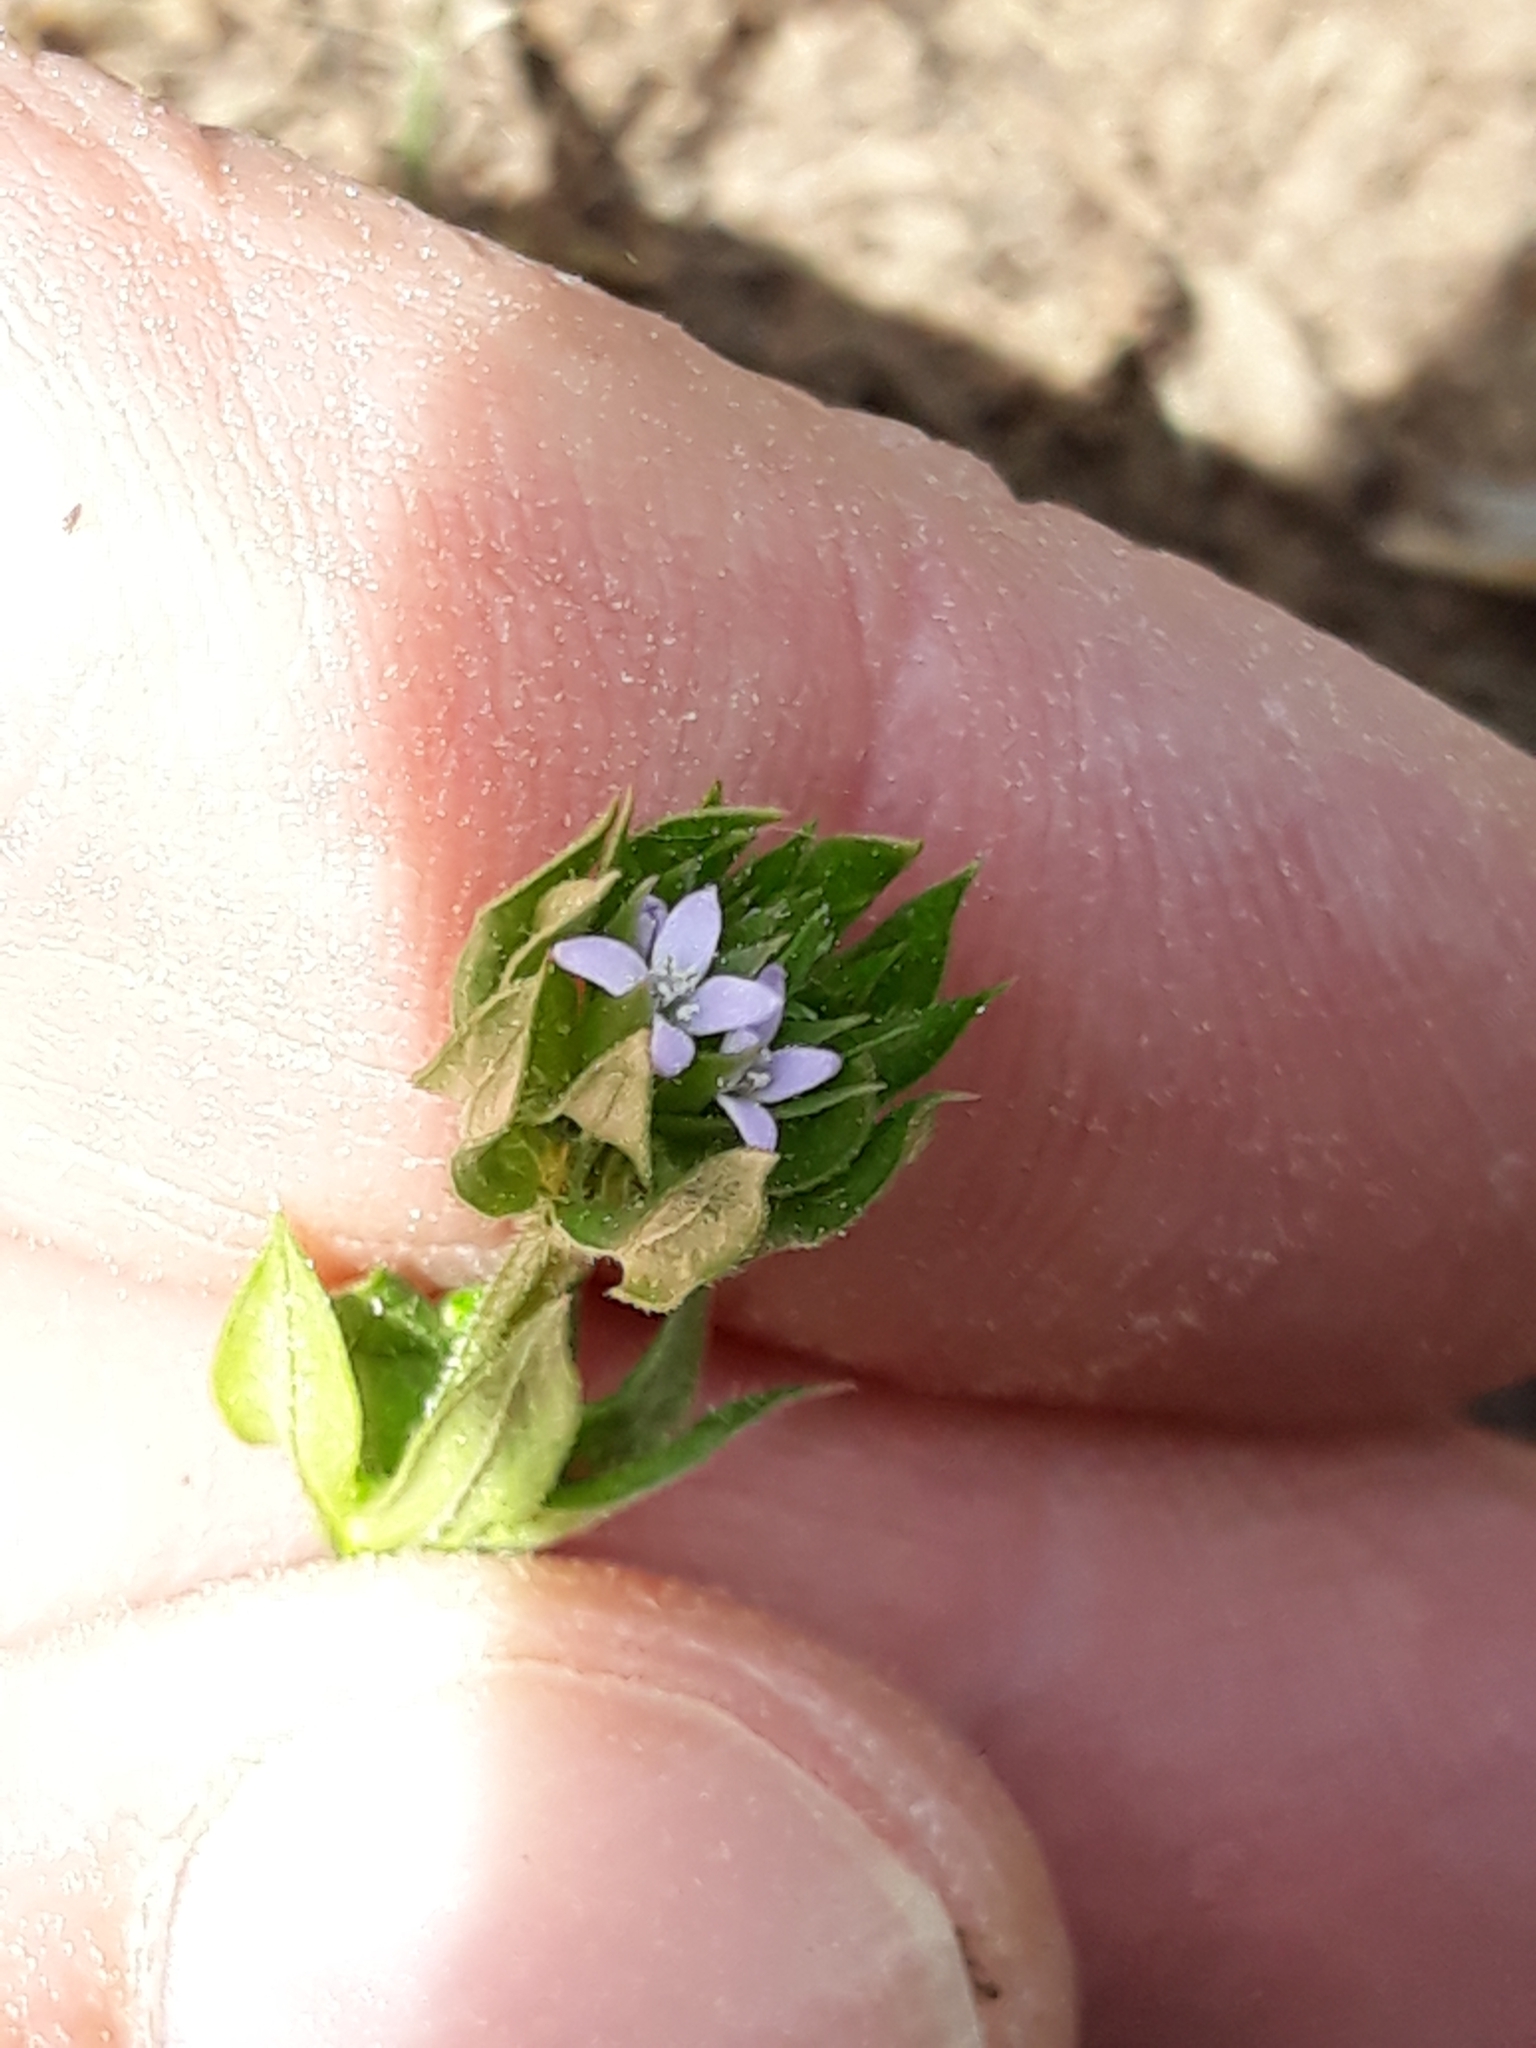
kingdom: Plantae
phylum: Tracheophyta
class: Magnoliopsida
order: Gentianales
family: Rubiaceae
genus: Sherardia
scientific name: Sherardia arvensis
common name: Field madder
